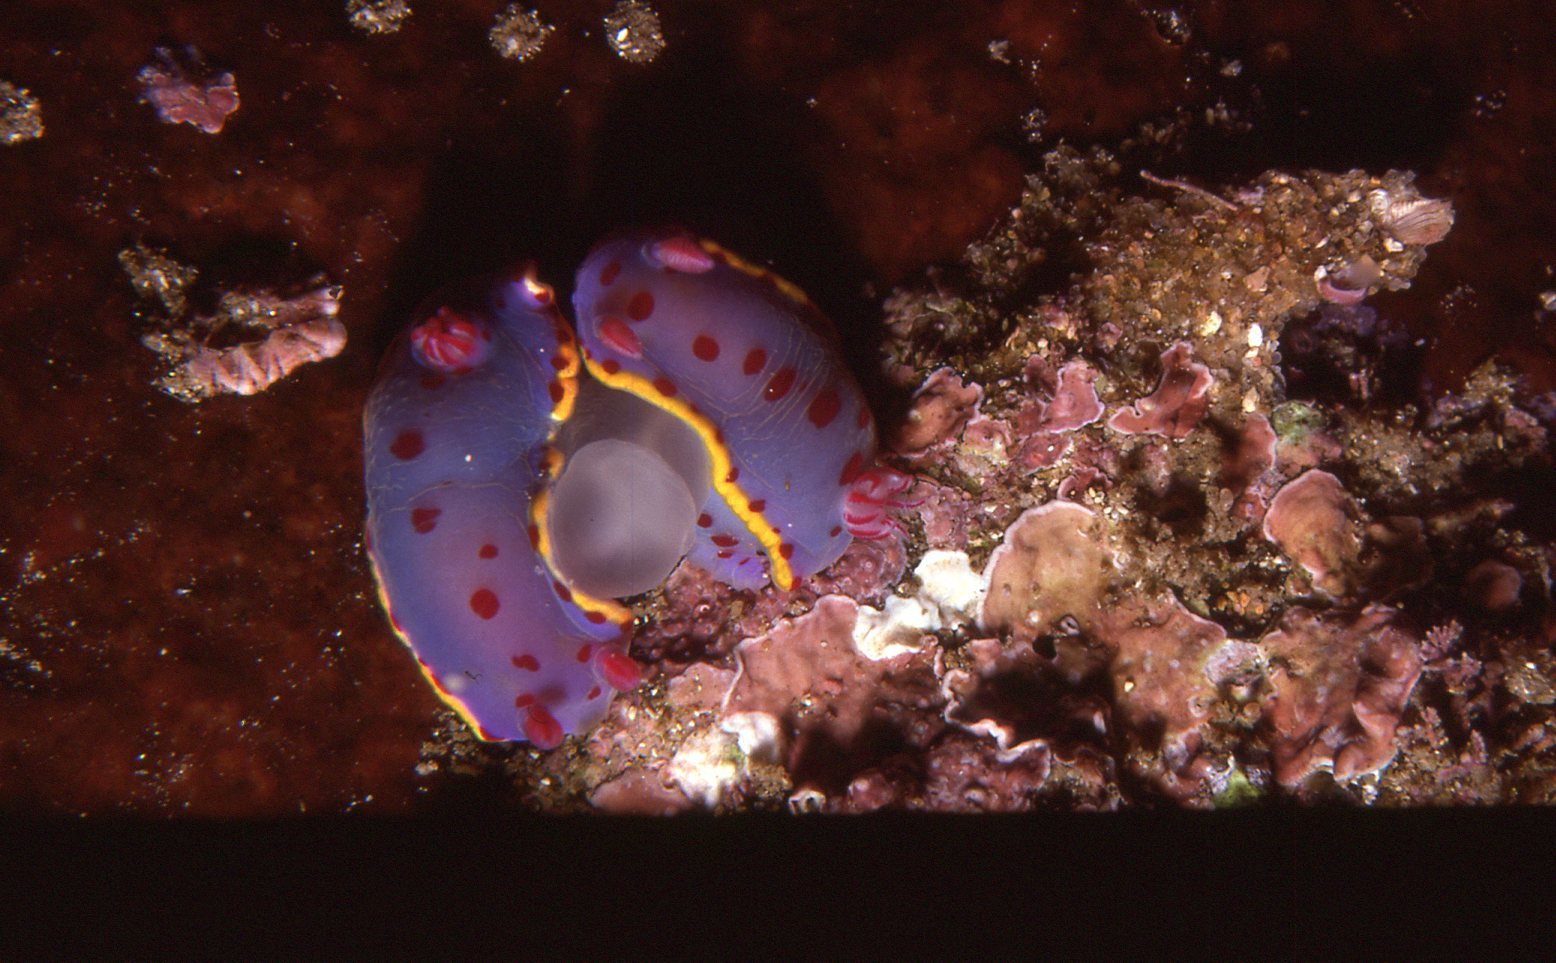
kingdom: Animalia
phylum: Mollusca
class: Gastropoda
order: Nudibranchia
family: Chromodorididae
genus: Hypselodoris
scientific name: Hypselodoris bennetti
